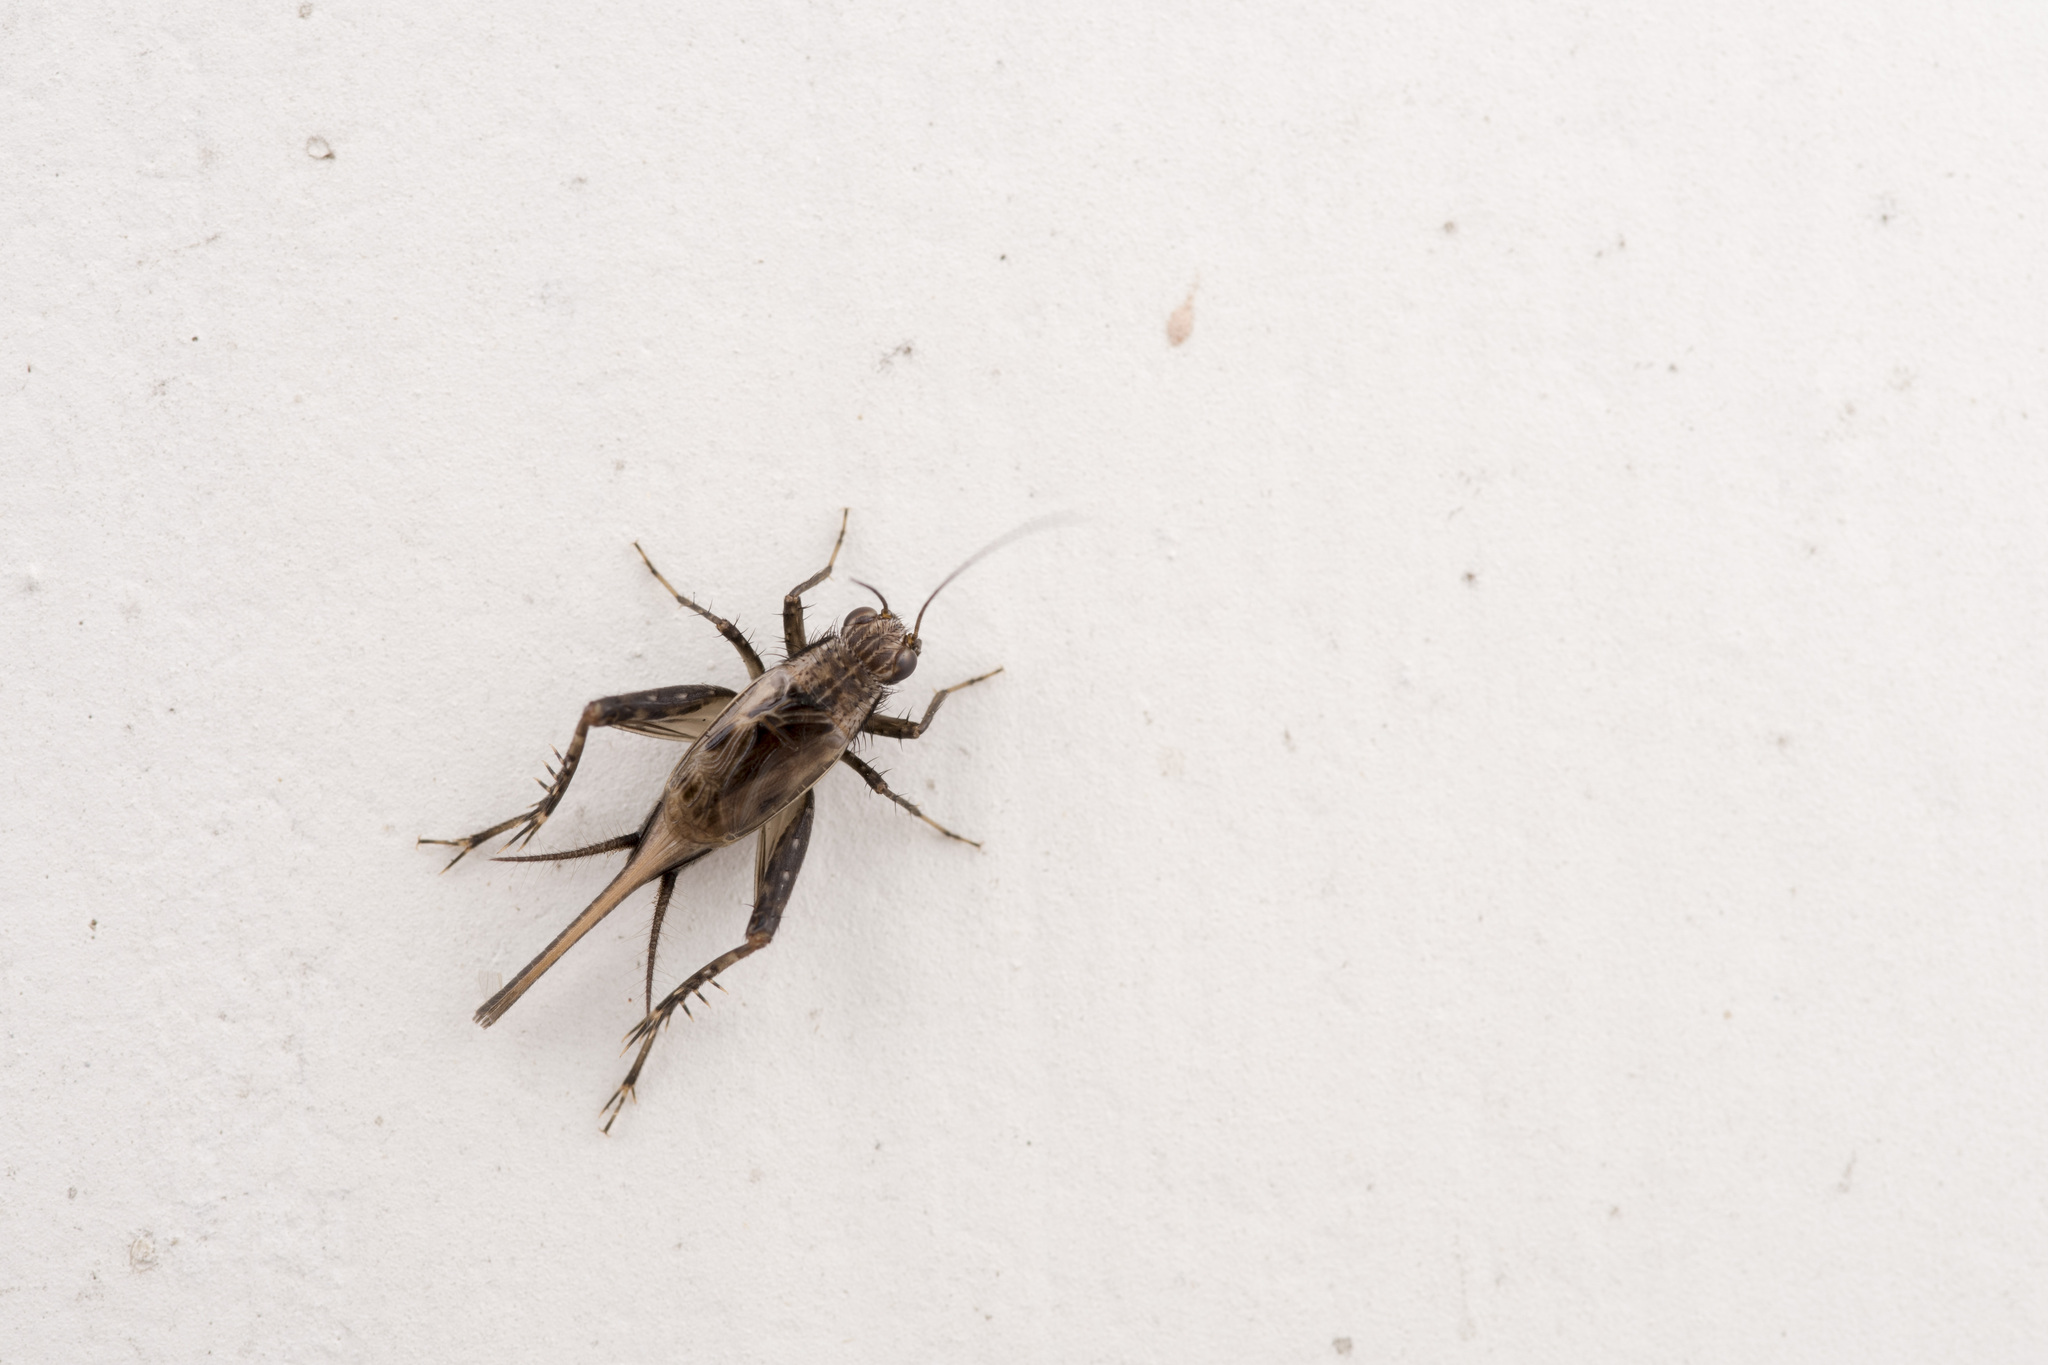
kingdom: Animalia
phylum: Arthropoda
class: Insecta
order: Orthoptera
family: Trigonidiidae
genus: Polionemobius
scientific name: Polionemobius taprobanense
